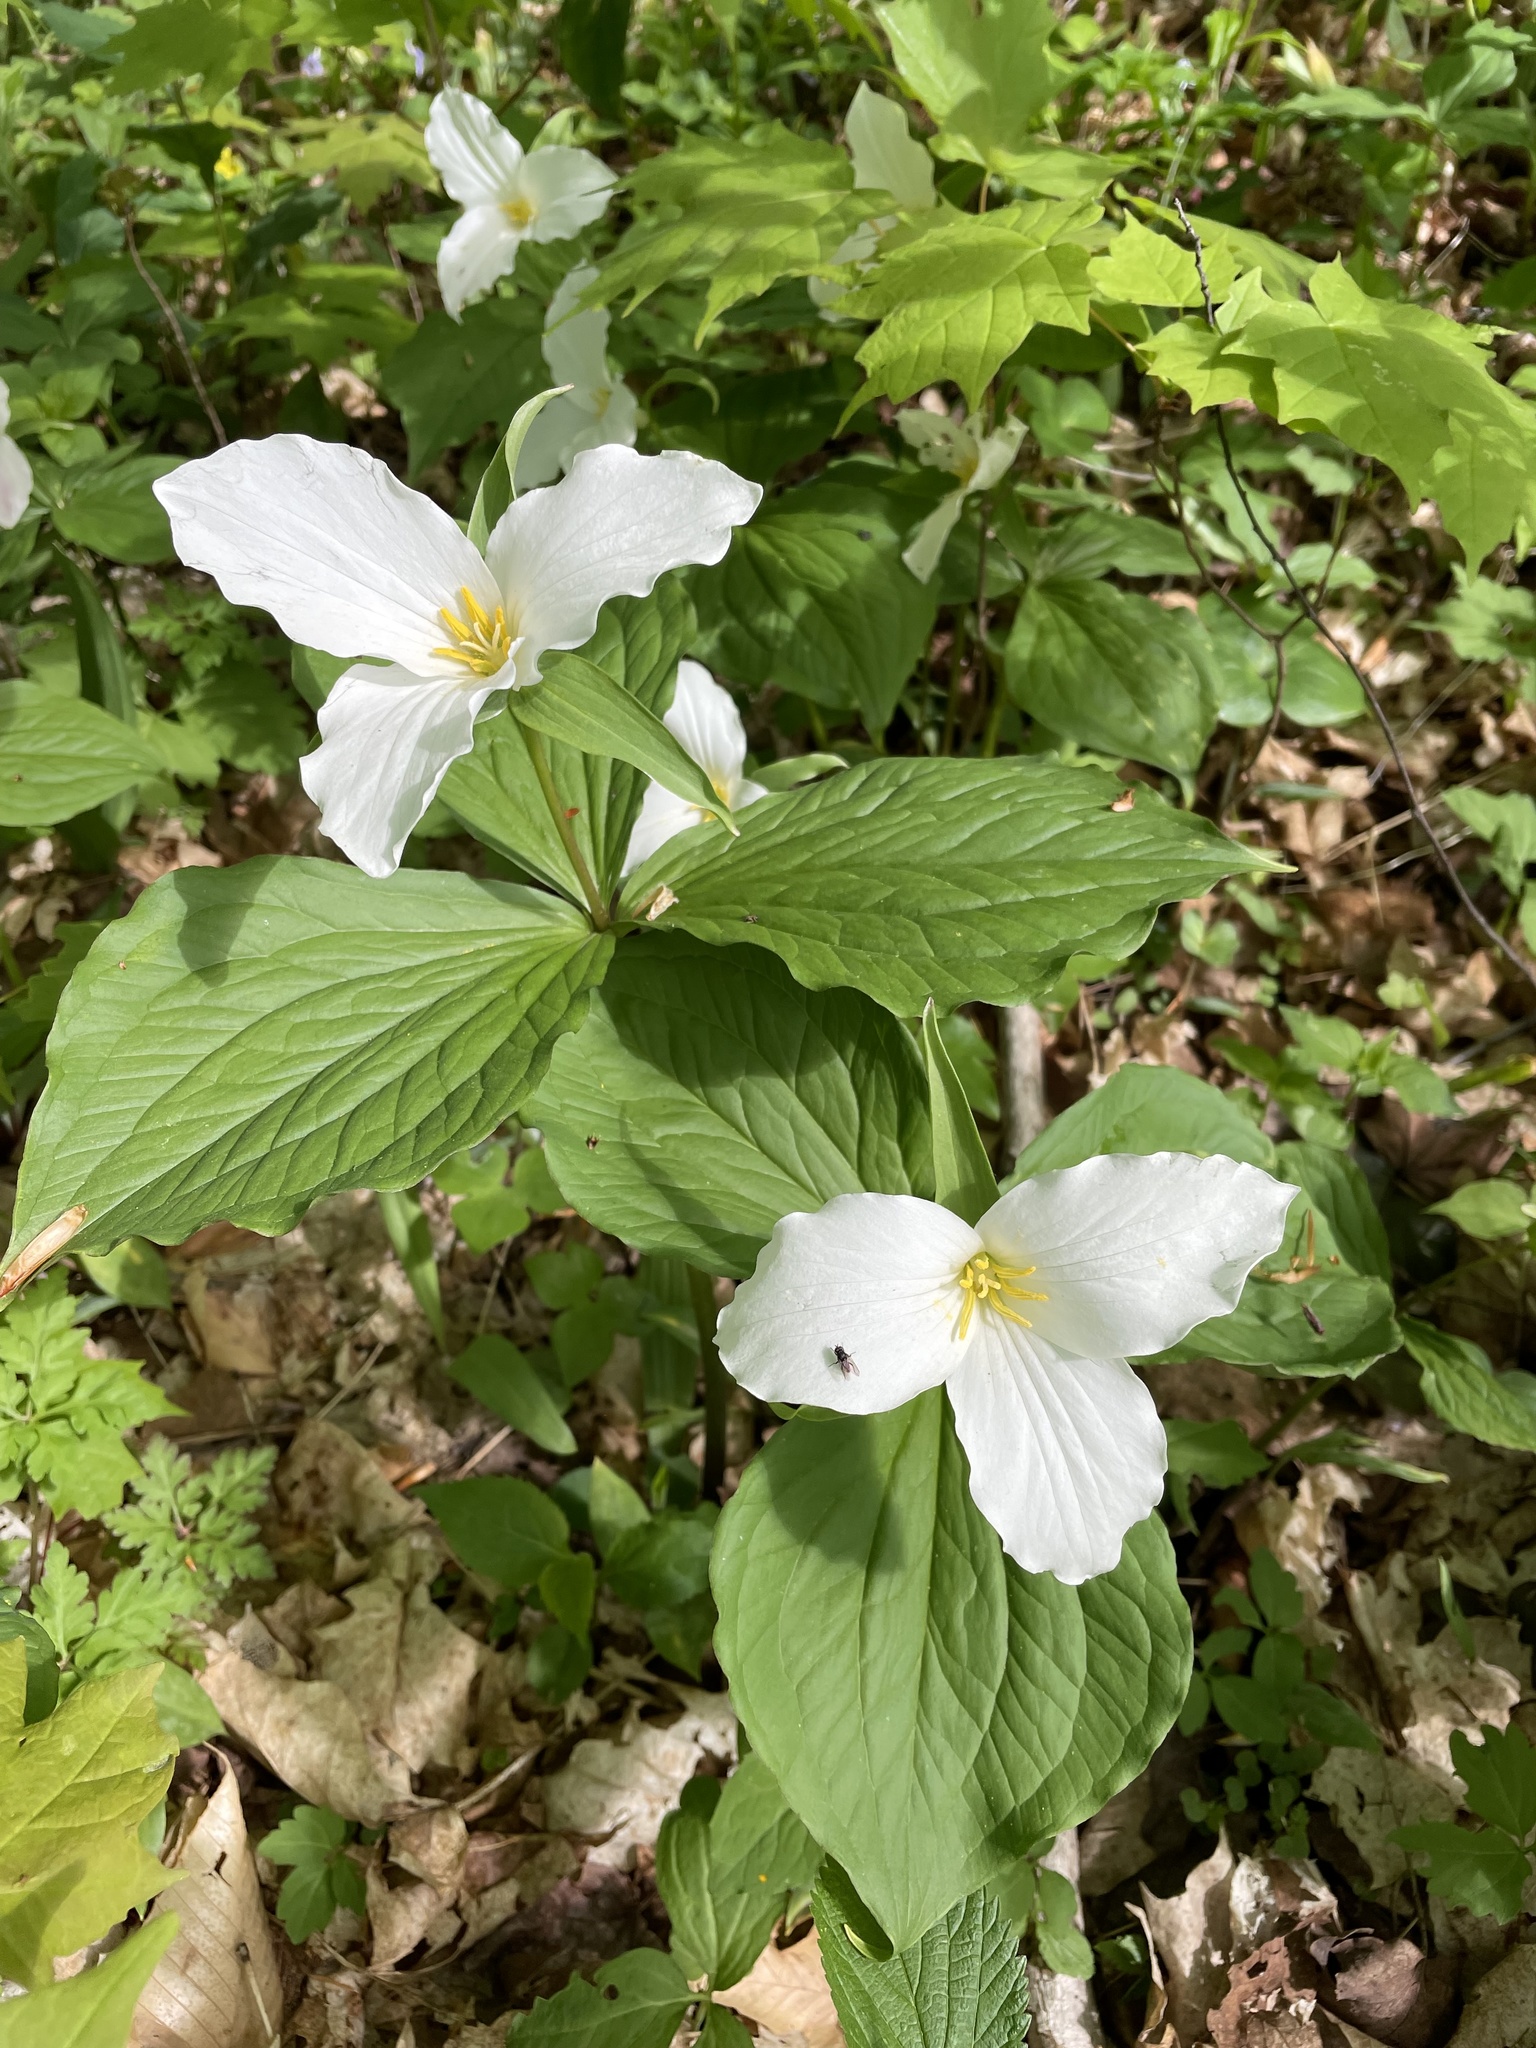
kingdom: Plantae
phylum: Tracheophyta
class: Liliopsida
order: Liliales
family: Melanthiaceae
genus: Trillium
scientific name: Trillium grandiflorum
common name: Great white trillium
